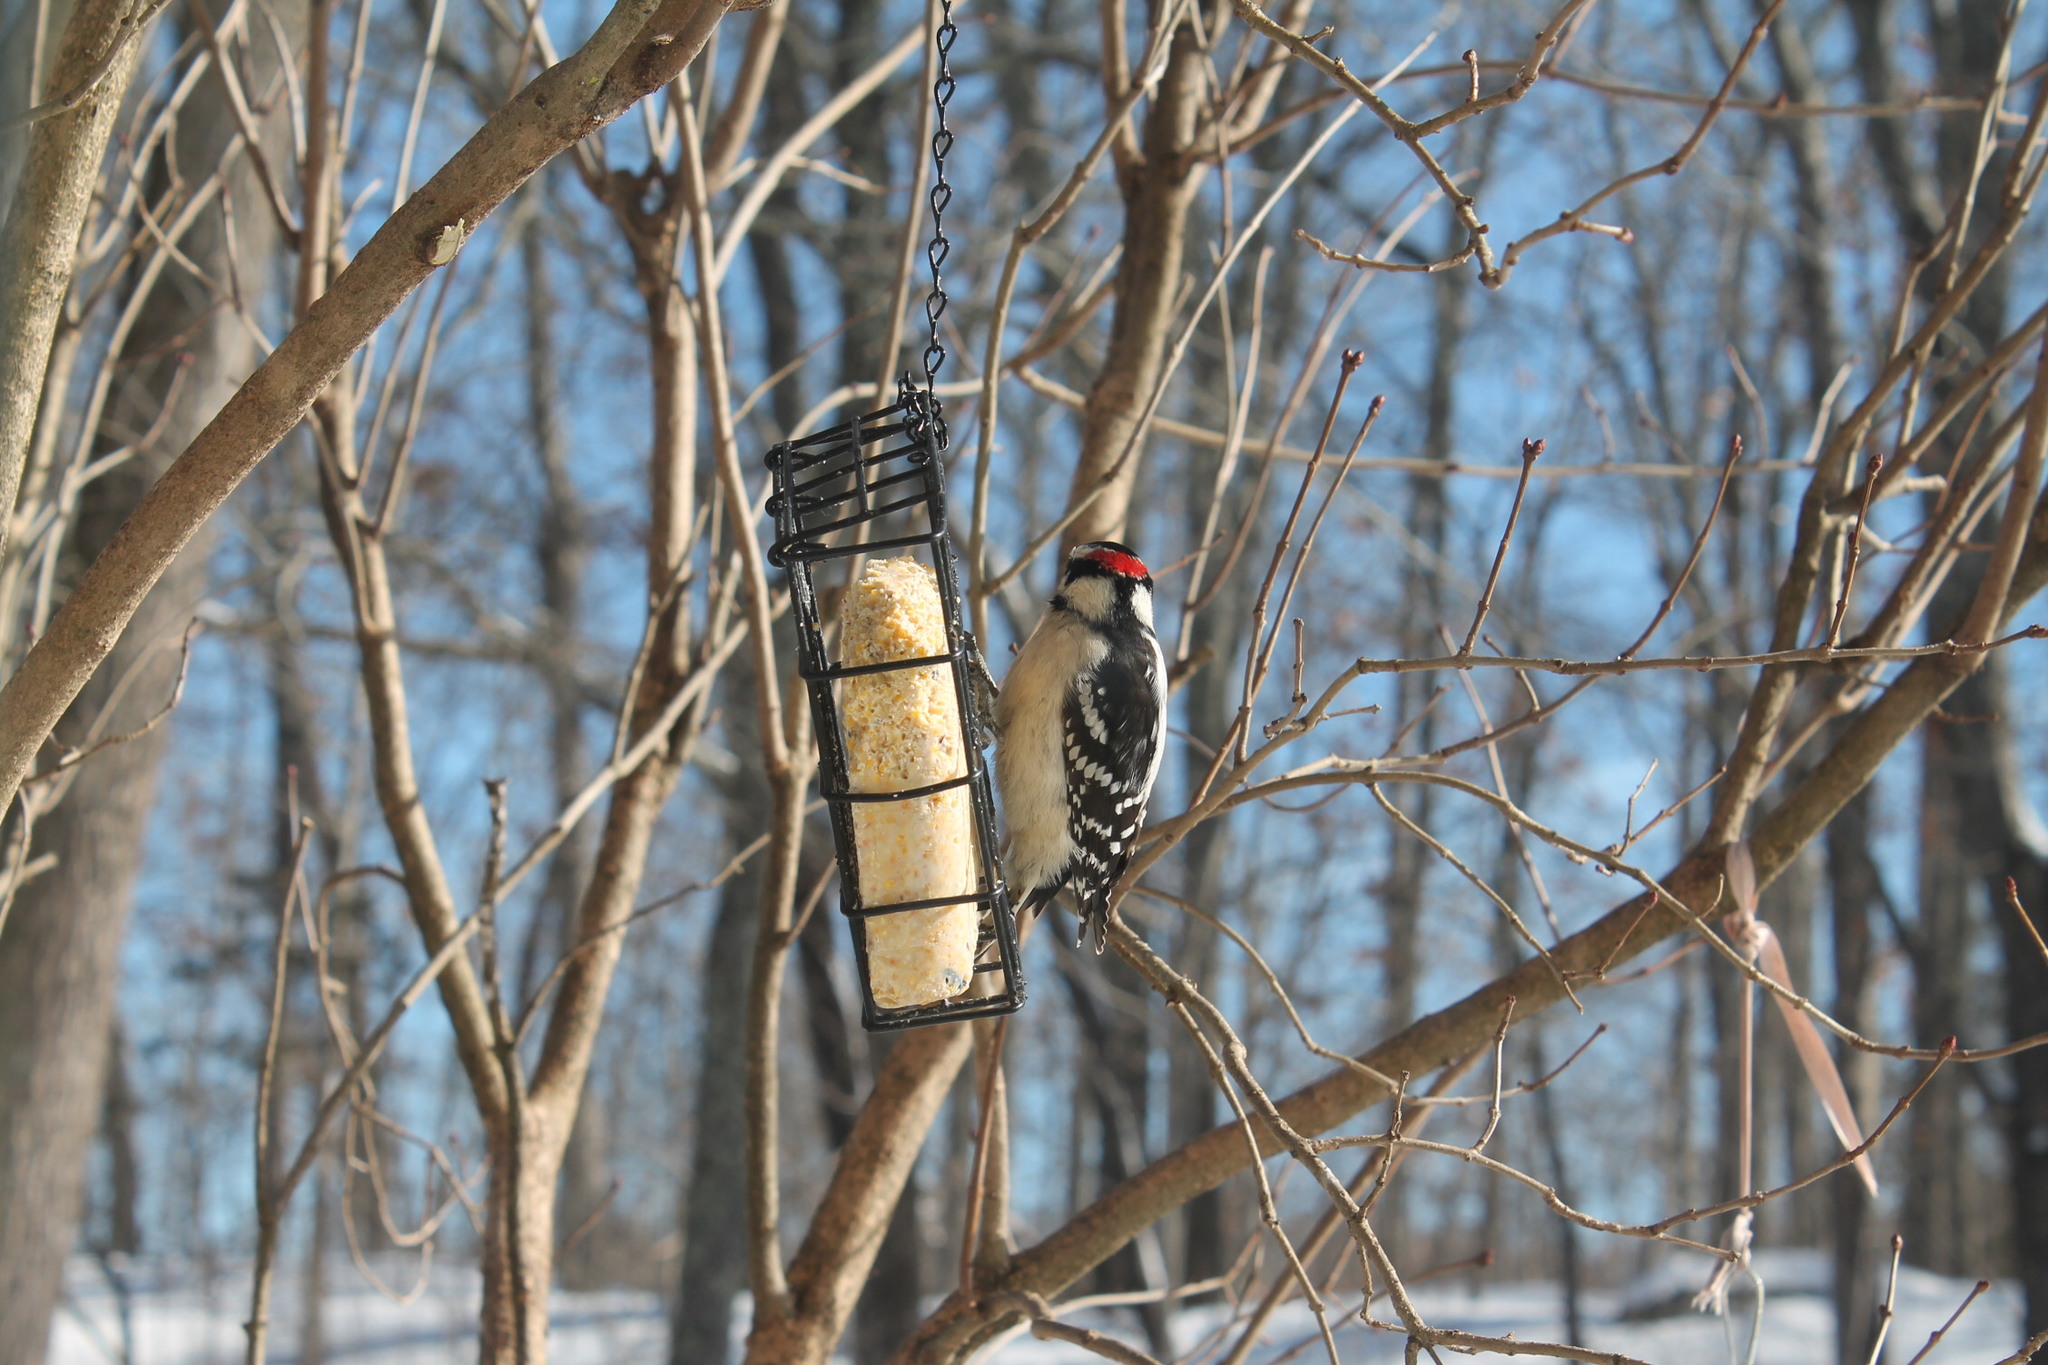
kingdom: Animalia
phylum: Chordata
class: Aves
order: Piciformes
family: Picidae
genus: Dryobates
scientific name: Dryobates pubescens
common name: Downy woodpecker
